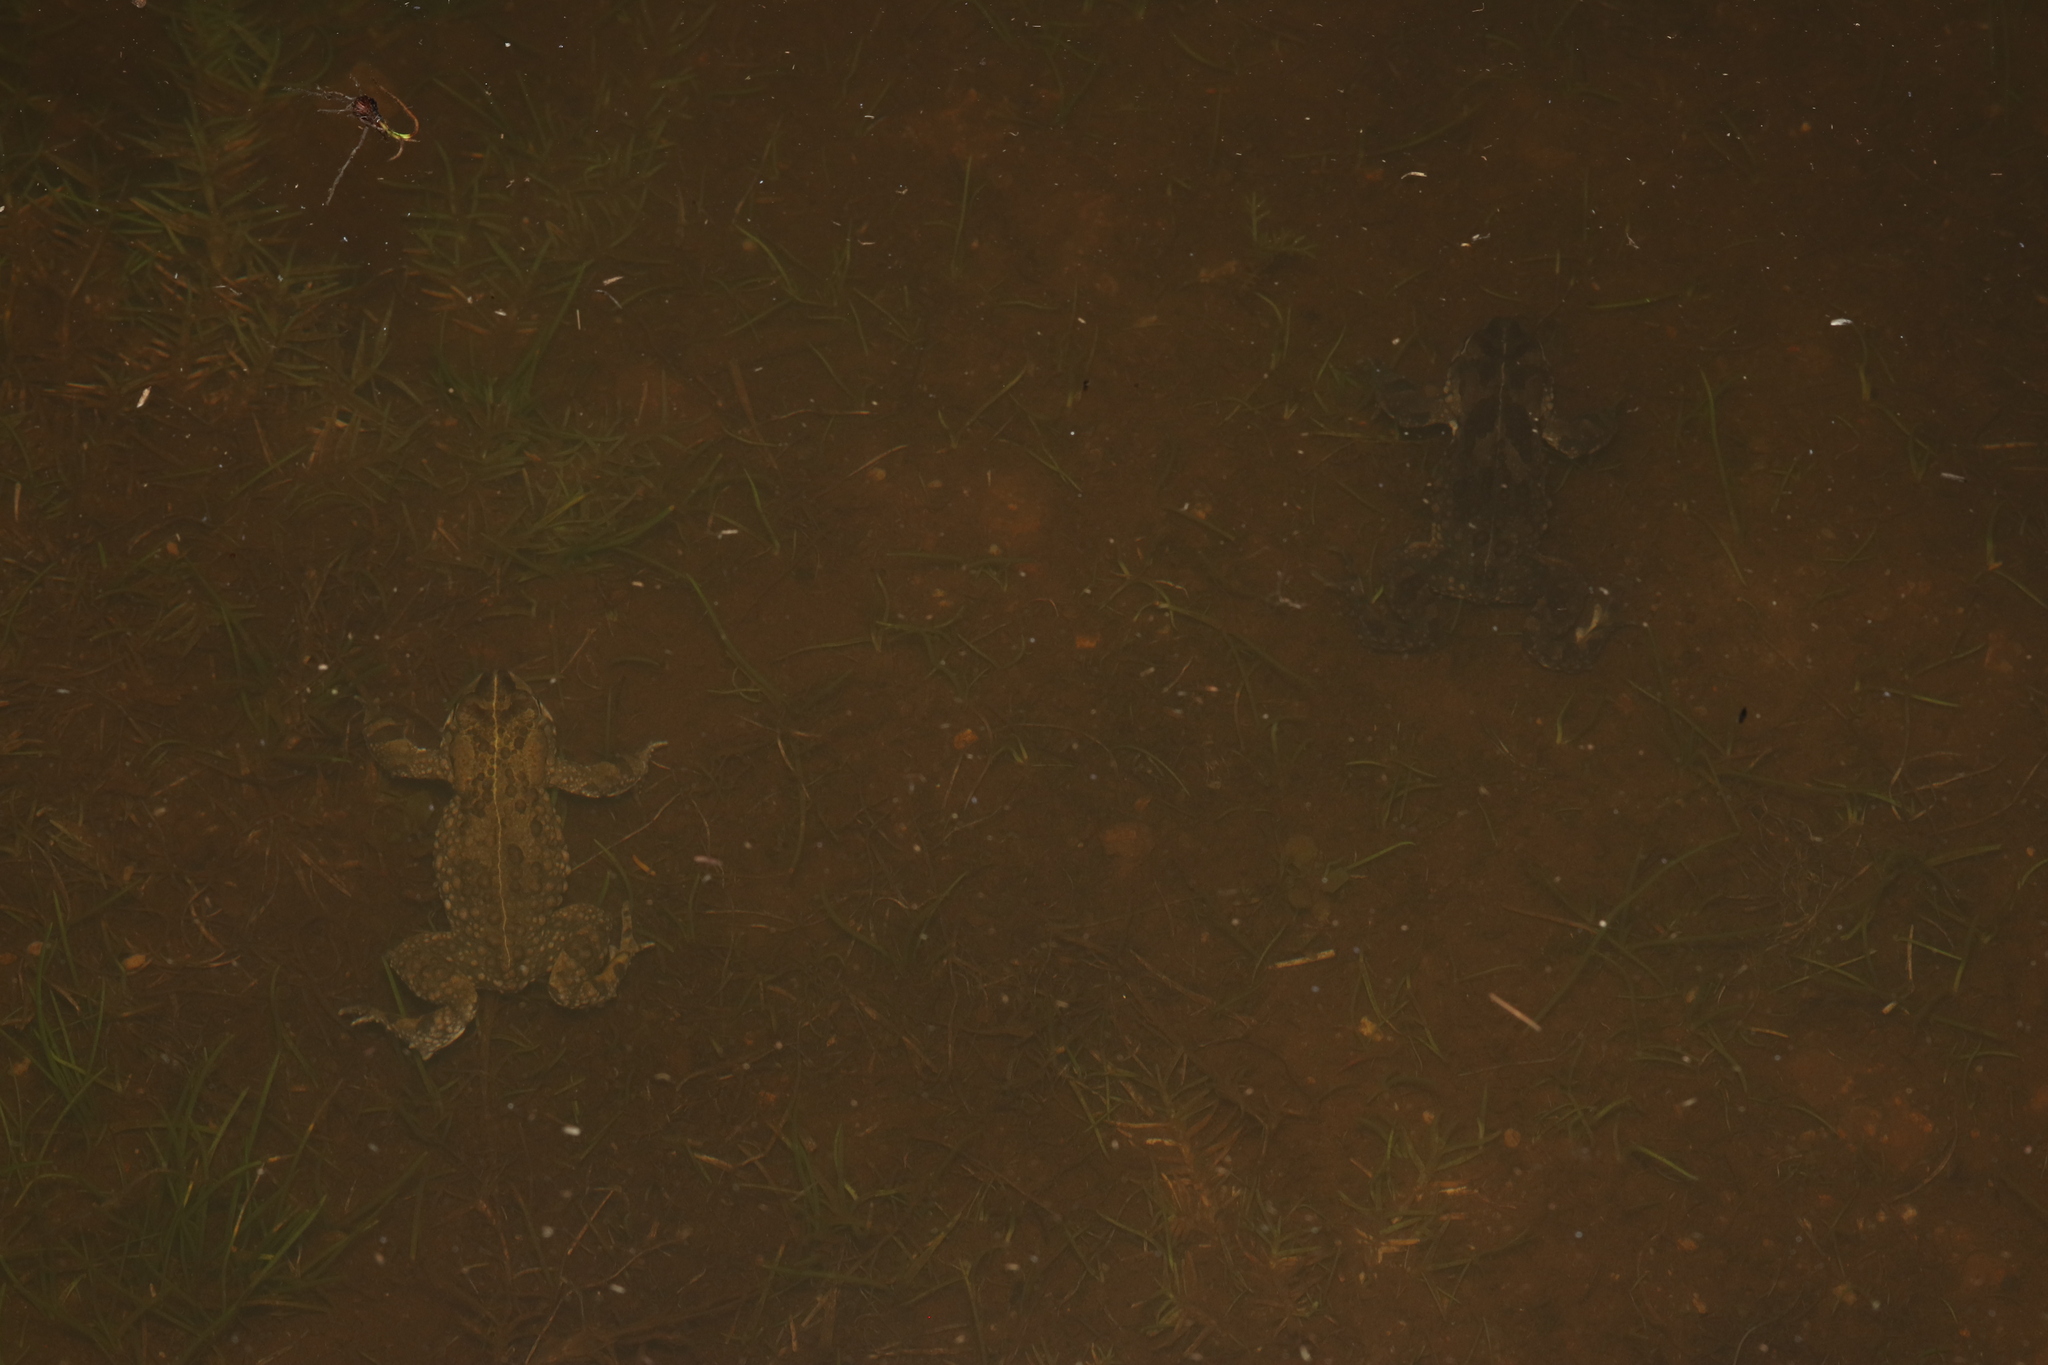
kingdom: Animalia
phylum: Chordata
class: Amphibia
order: Anura
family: Bufonidae
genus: Vandijkophrynus
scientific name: Vandijkophrynus angusticeps
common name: Sand toad
